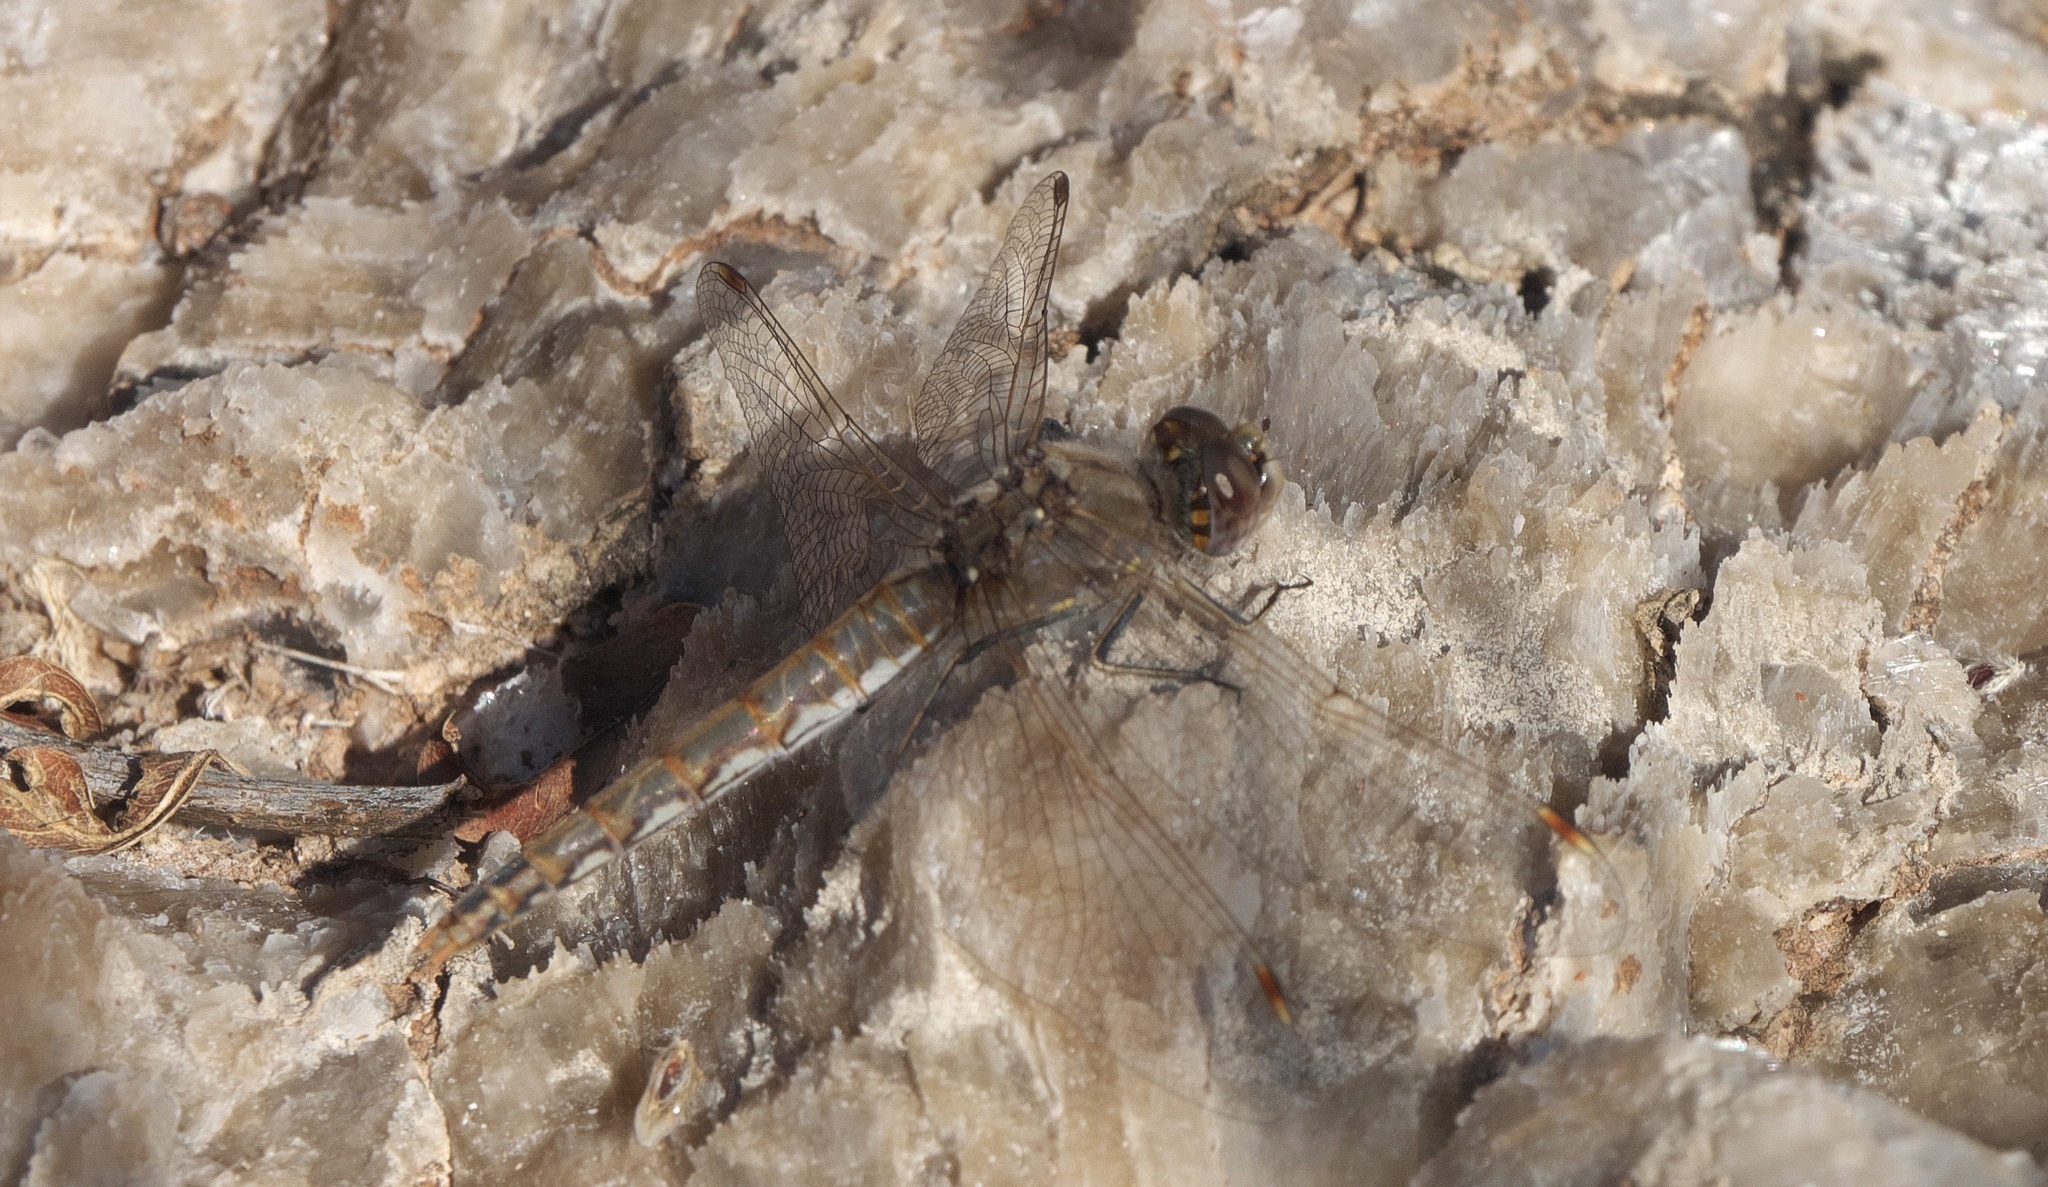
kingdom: Animalia
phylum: Arthropoda
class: Insecta
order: Odonata
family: Libellulidae
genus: Sympetrum
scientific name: Sympetrum corruptum
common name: Variegated meadowhawk
